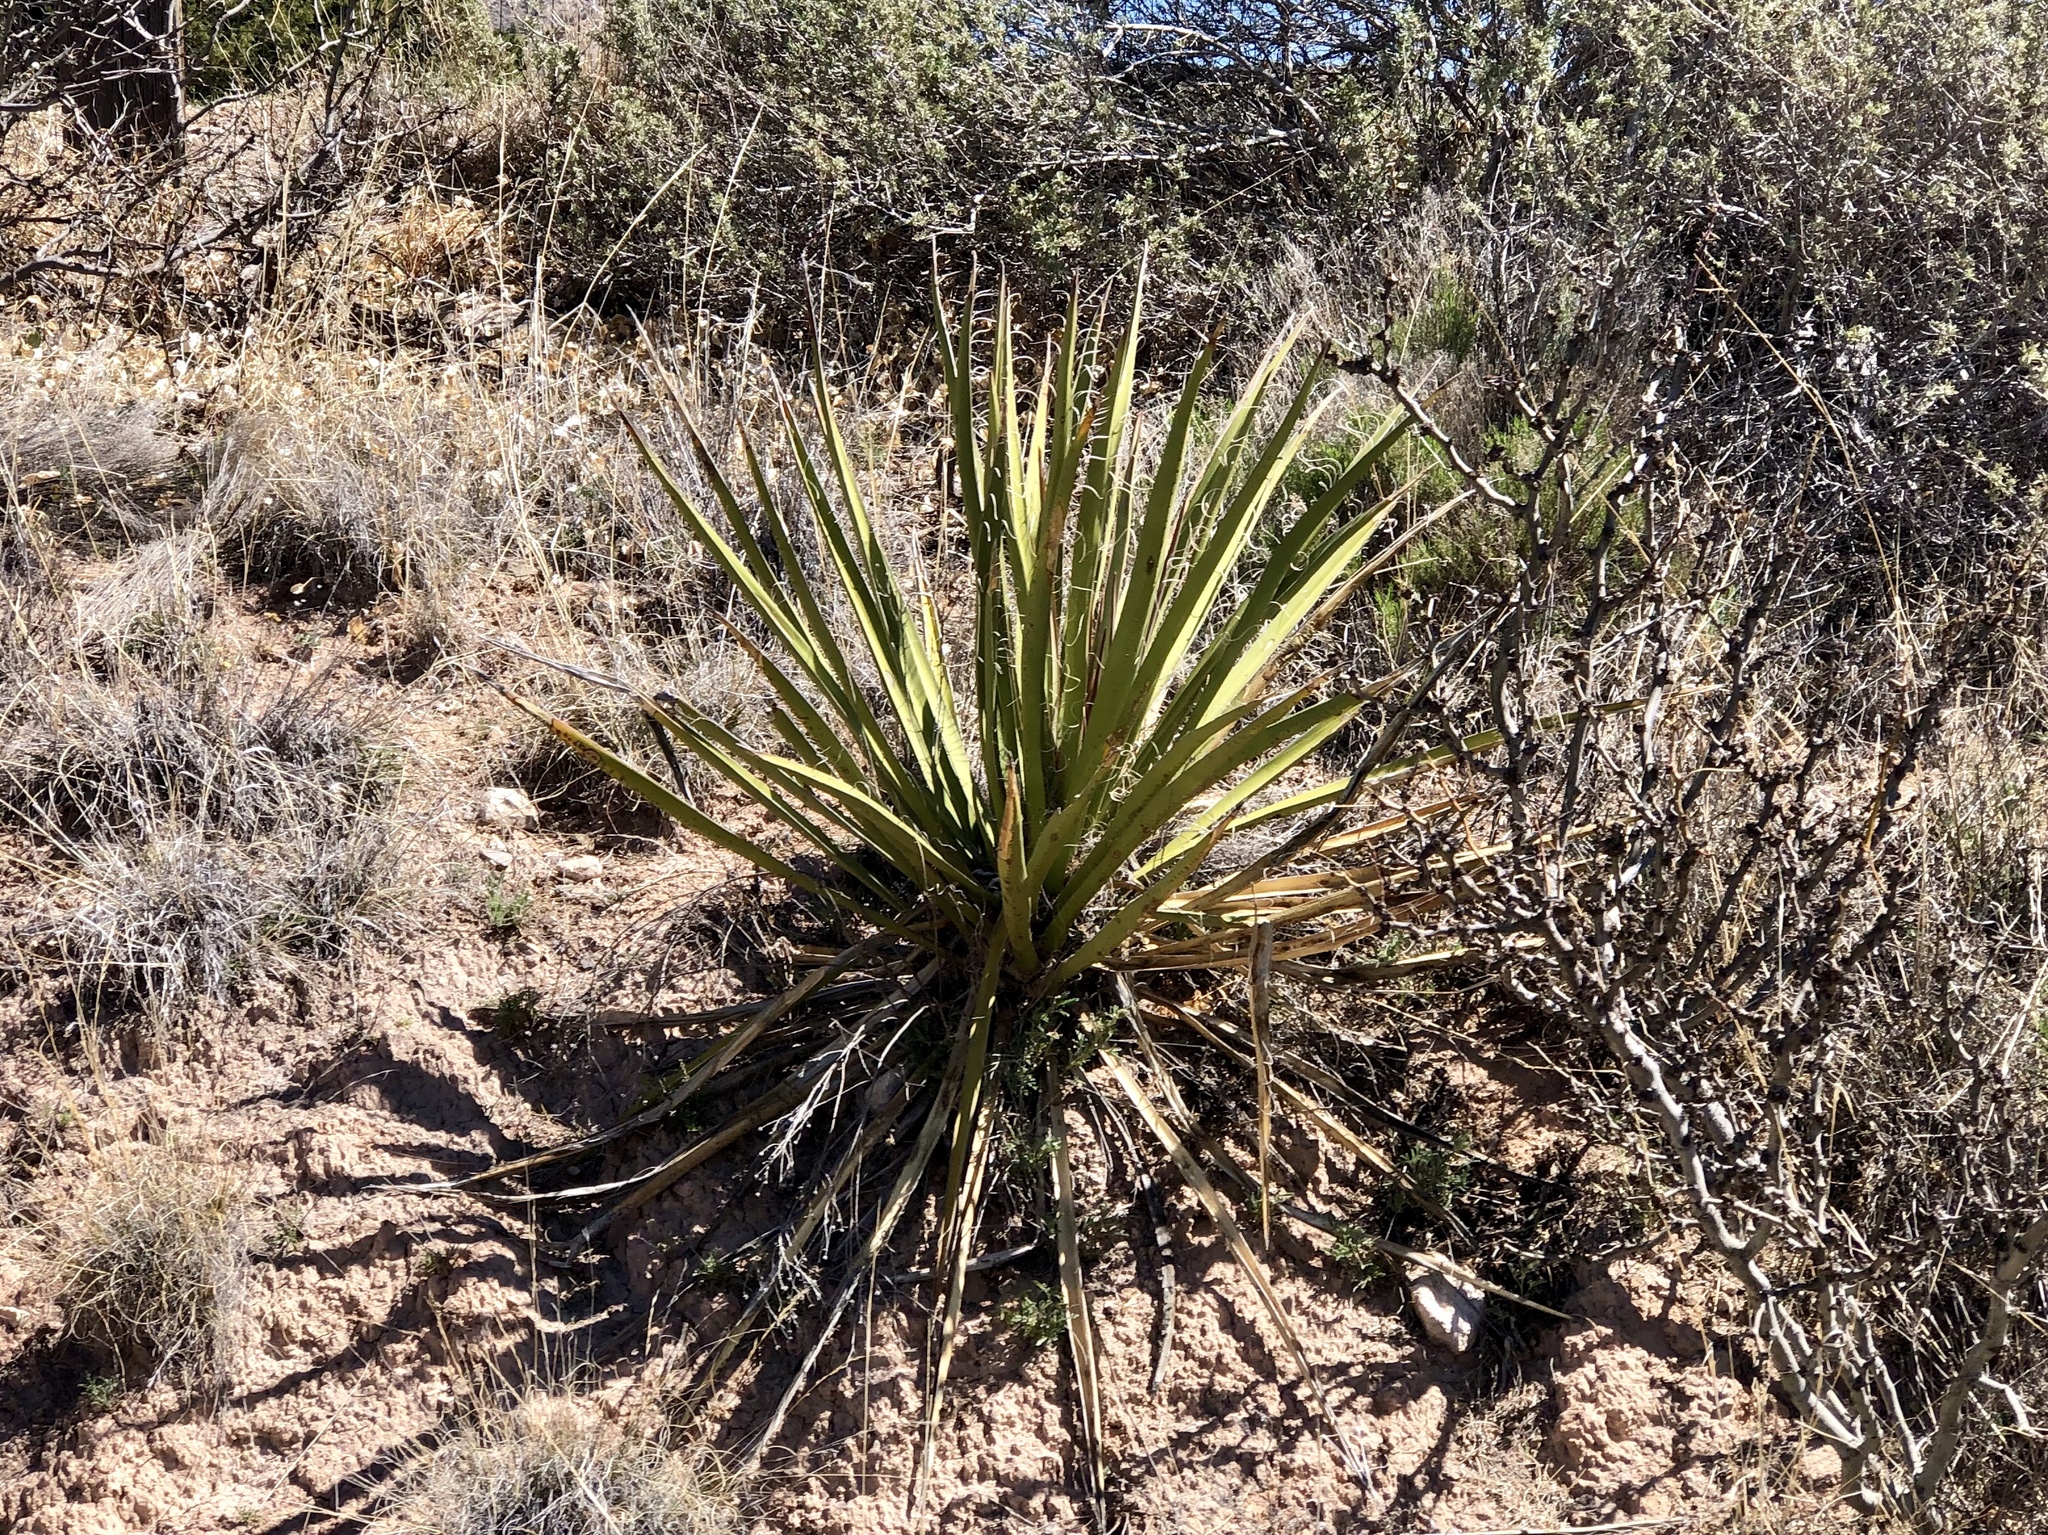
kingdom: Plantae
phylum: Tracheophyta
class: Liliopsida
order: Asparagales
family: Asparagaceae
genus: Yucca
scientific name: Yucca baccata
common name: Banana yucca
